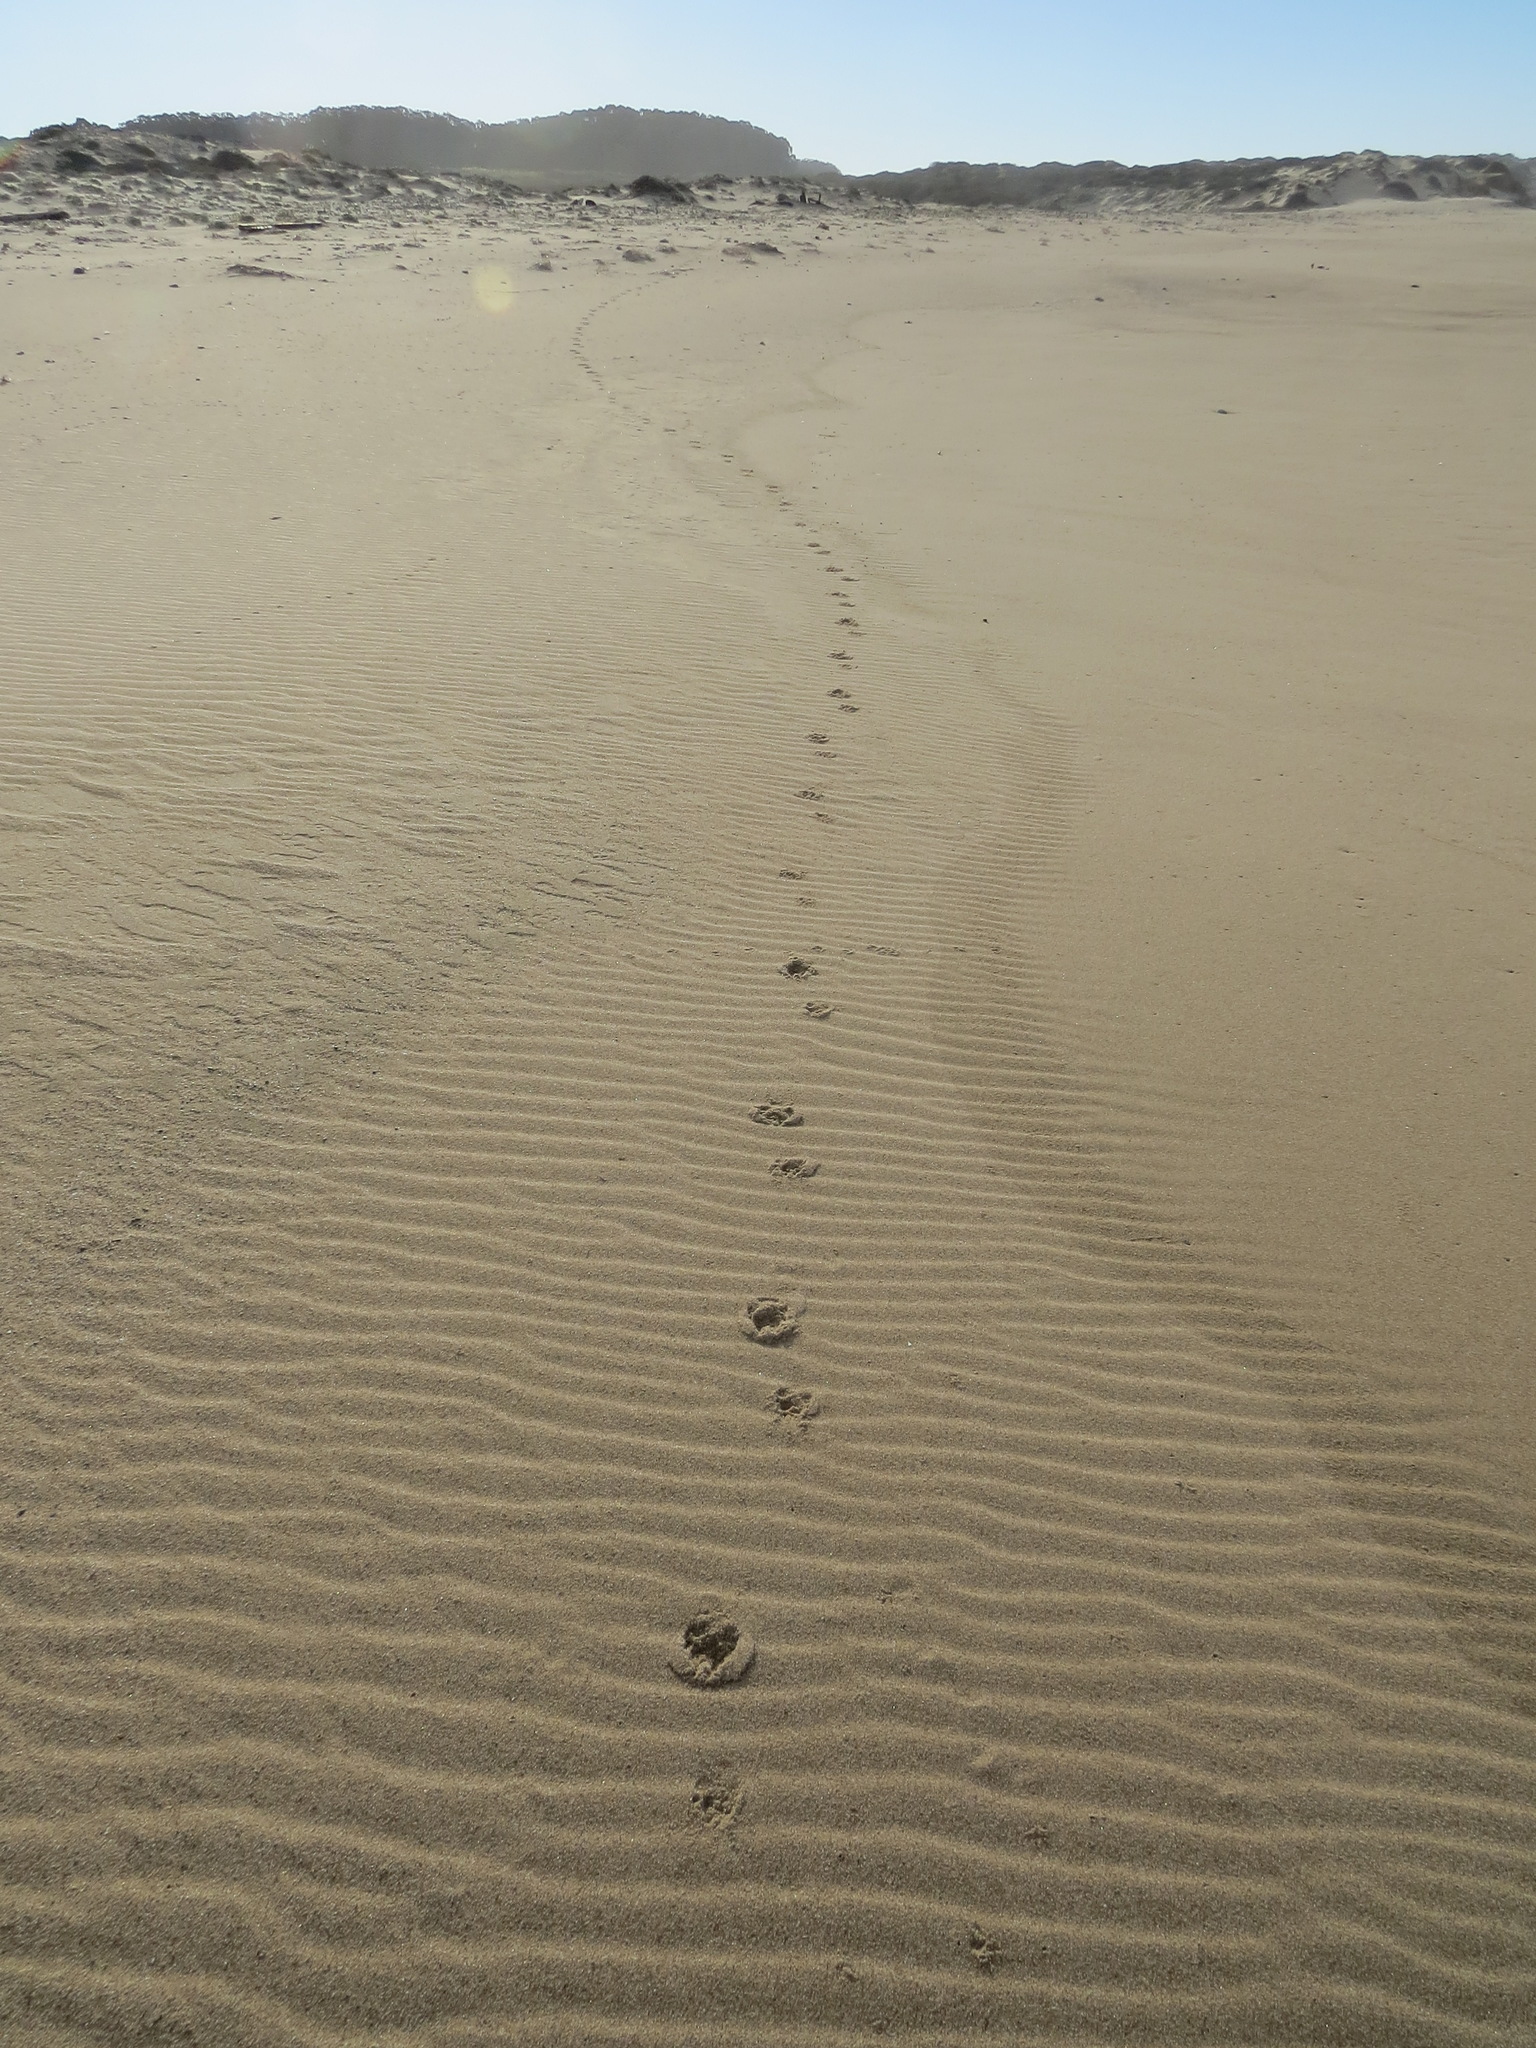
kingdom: Animalia
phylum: Chordata
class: Mammalia
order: Carnivora
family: Canidae
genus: Canis
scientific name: Canis latrans
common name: Coyote
